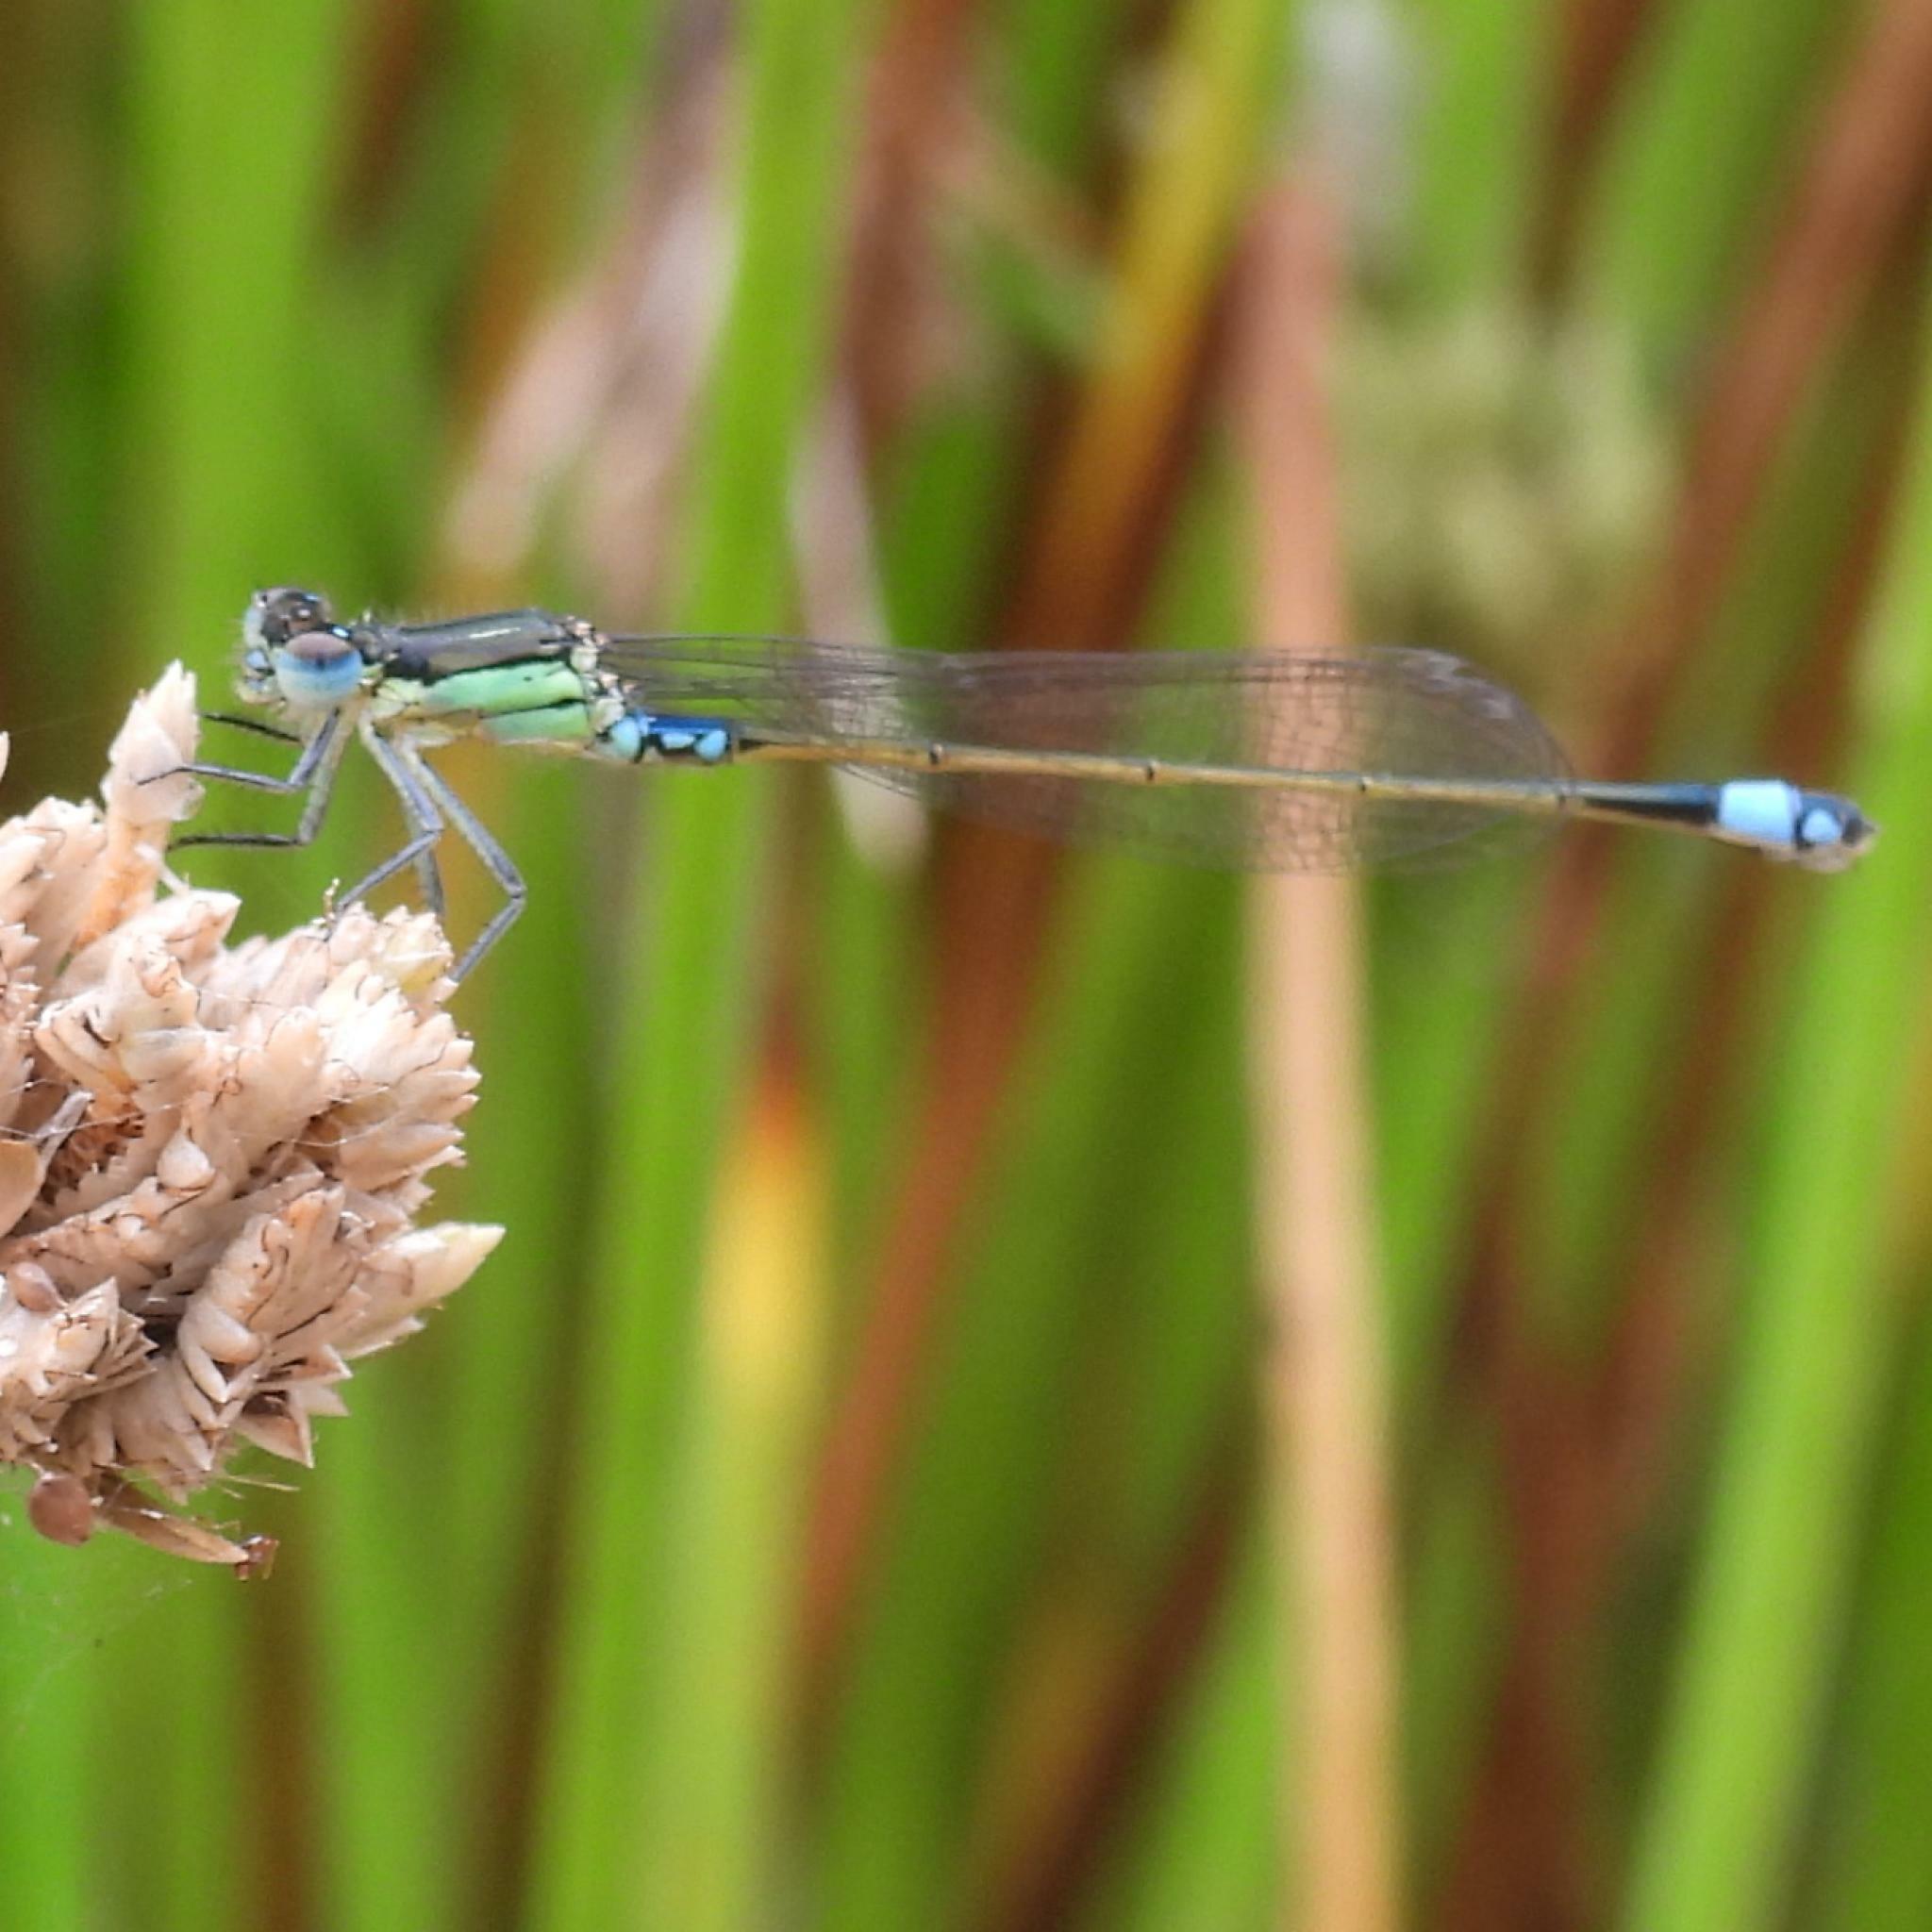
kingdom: Animalia
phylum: Arthropoda
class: Insecta
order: Odonata
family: Coenagrionidae
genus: Ischnura
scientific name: Ischnura senegalensis
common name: Tropical bluetail
